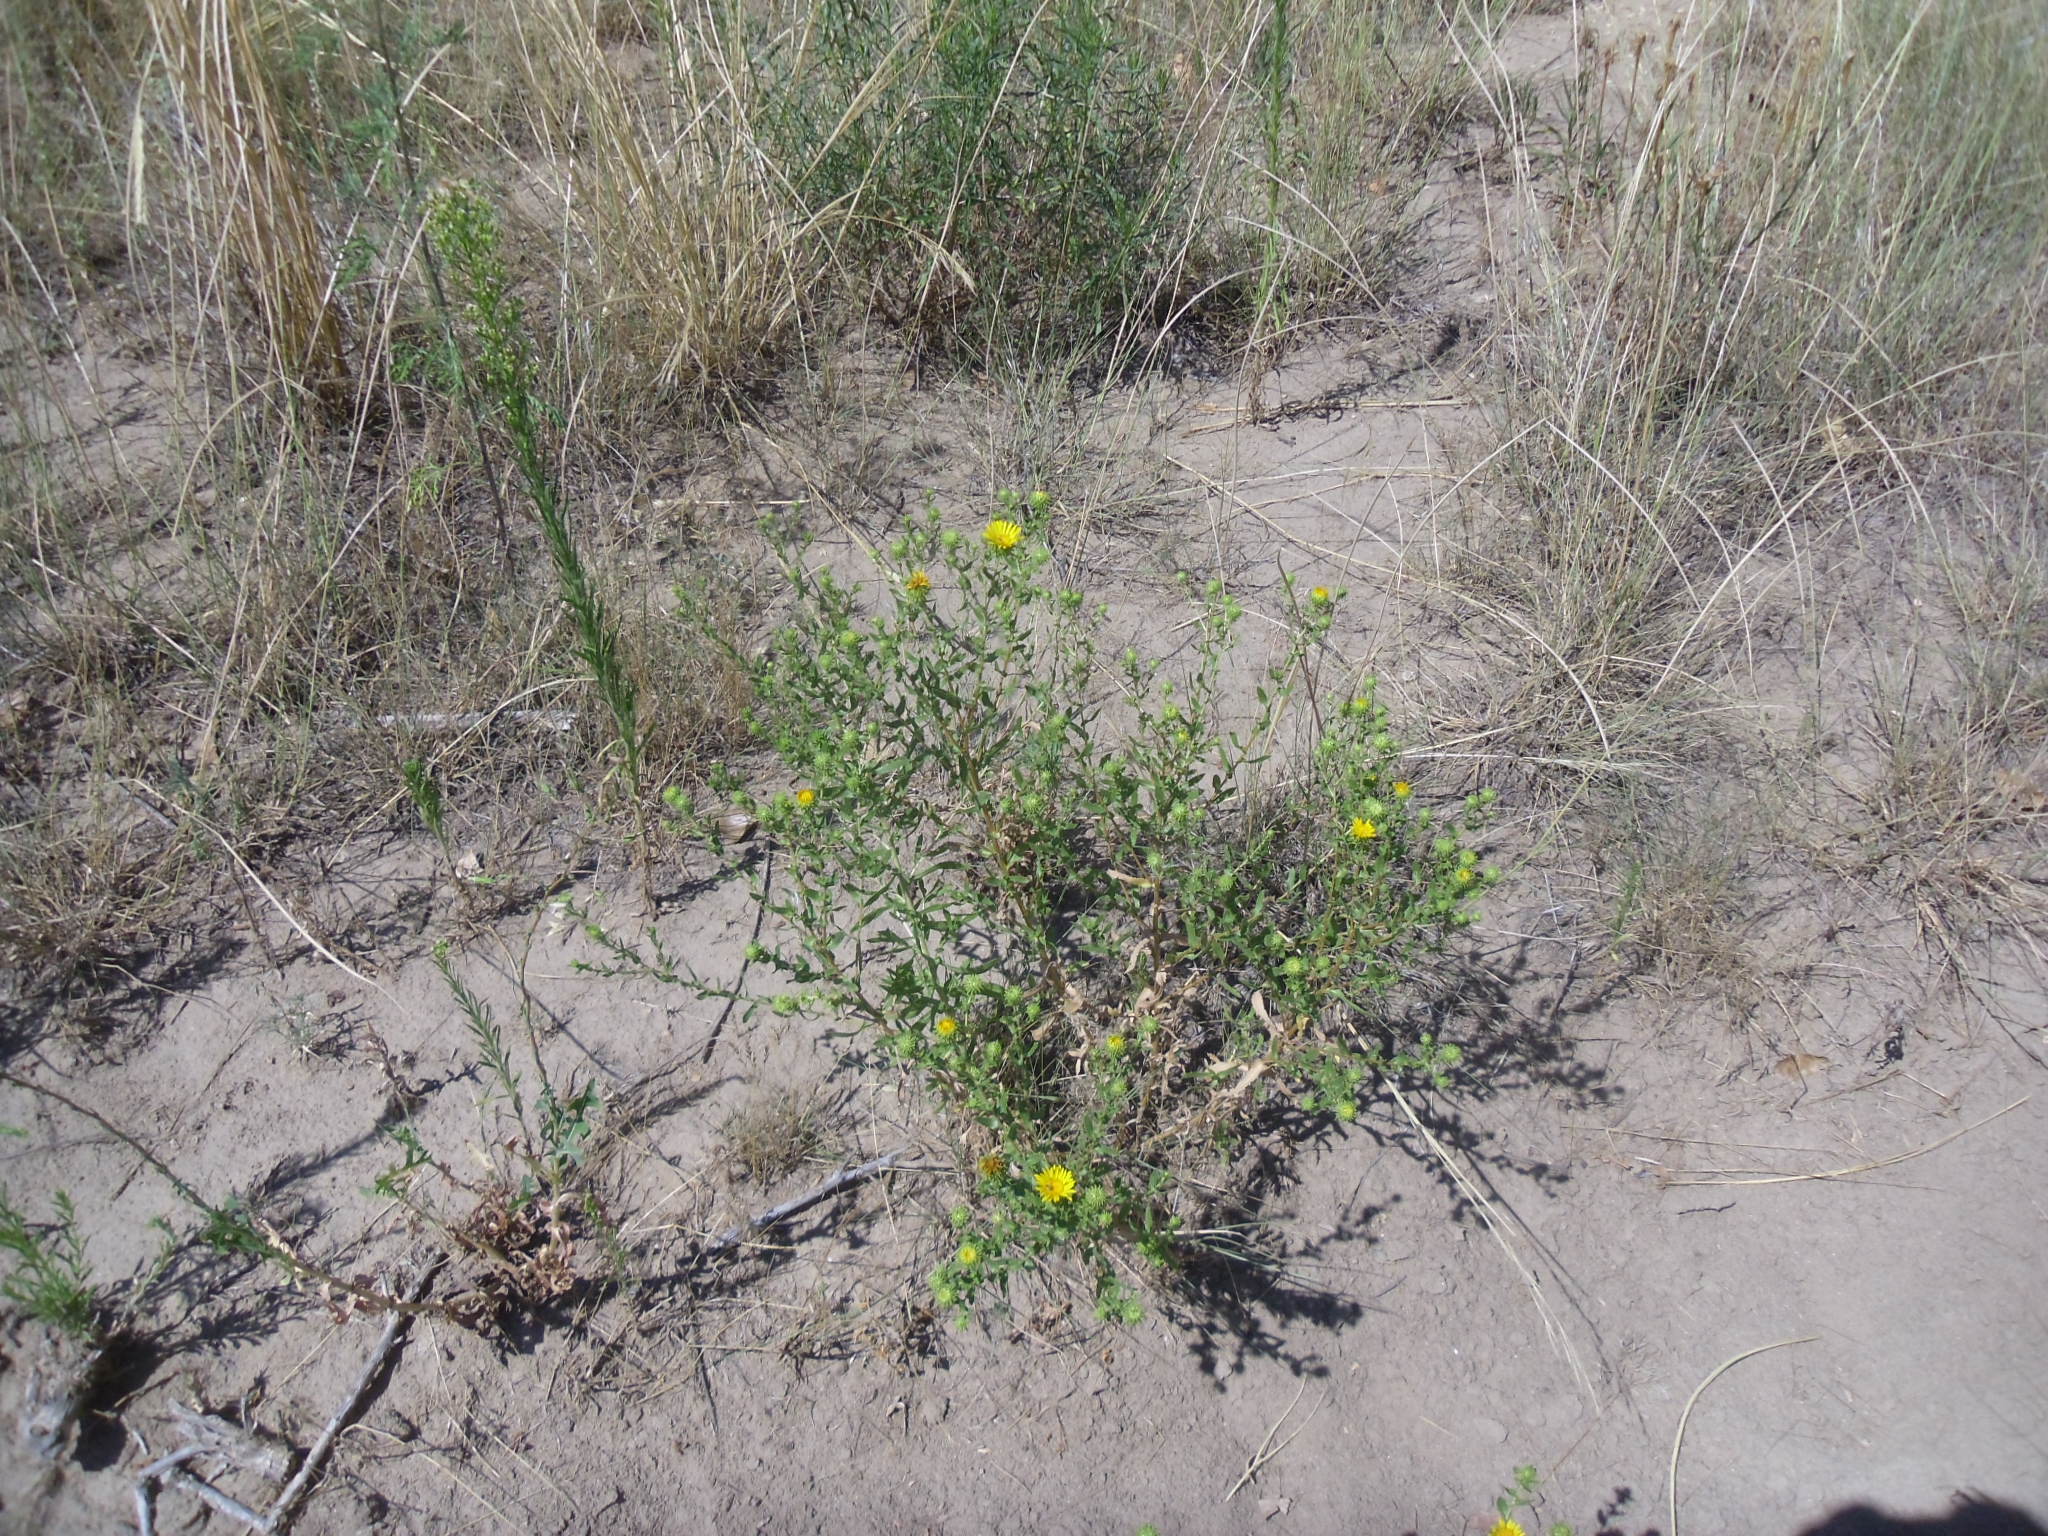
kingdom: Plantae
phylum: Tracheophyta
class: Magnoliopsida
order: Asterales
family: Asteraceae
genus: Grindelia
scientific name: Grindelia squarrosa
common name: Curly-cup gumweed
